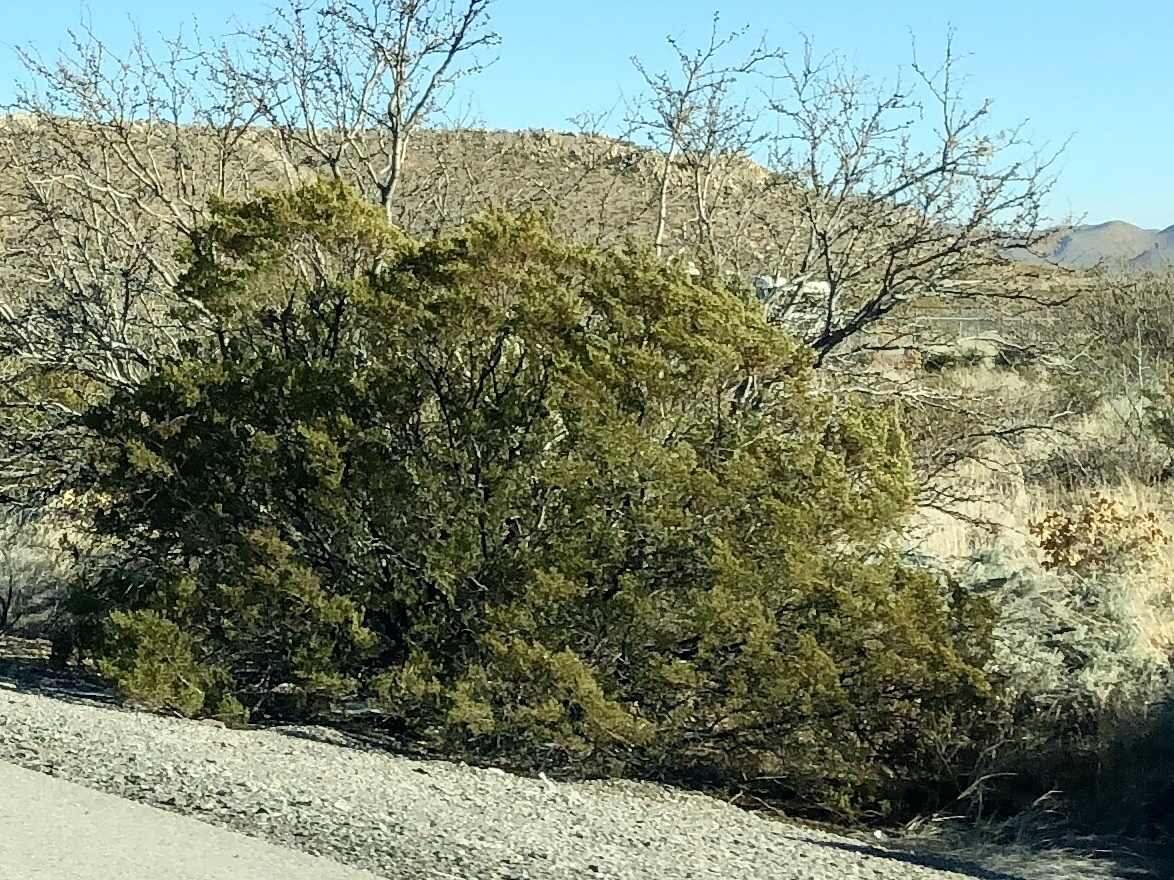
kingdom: Plantae
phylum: Tracheophyta
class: Magnoliopsida
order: Zygophyllales
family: Zygophyllaceae
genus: Larrea
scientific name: Larrea tridentata
